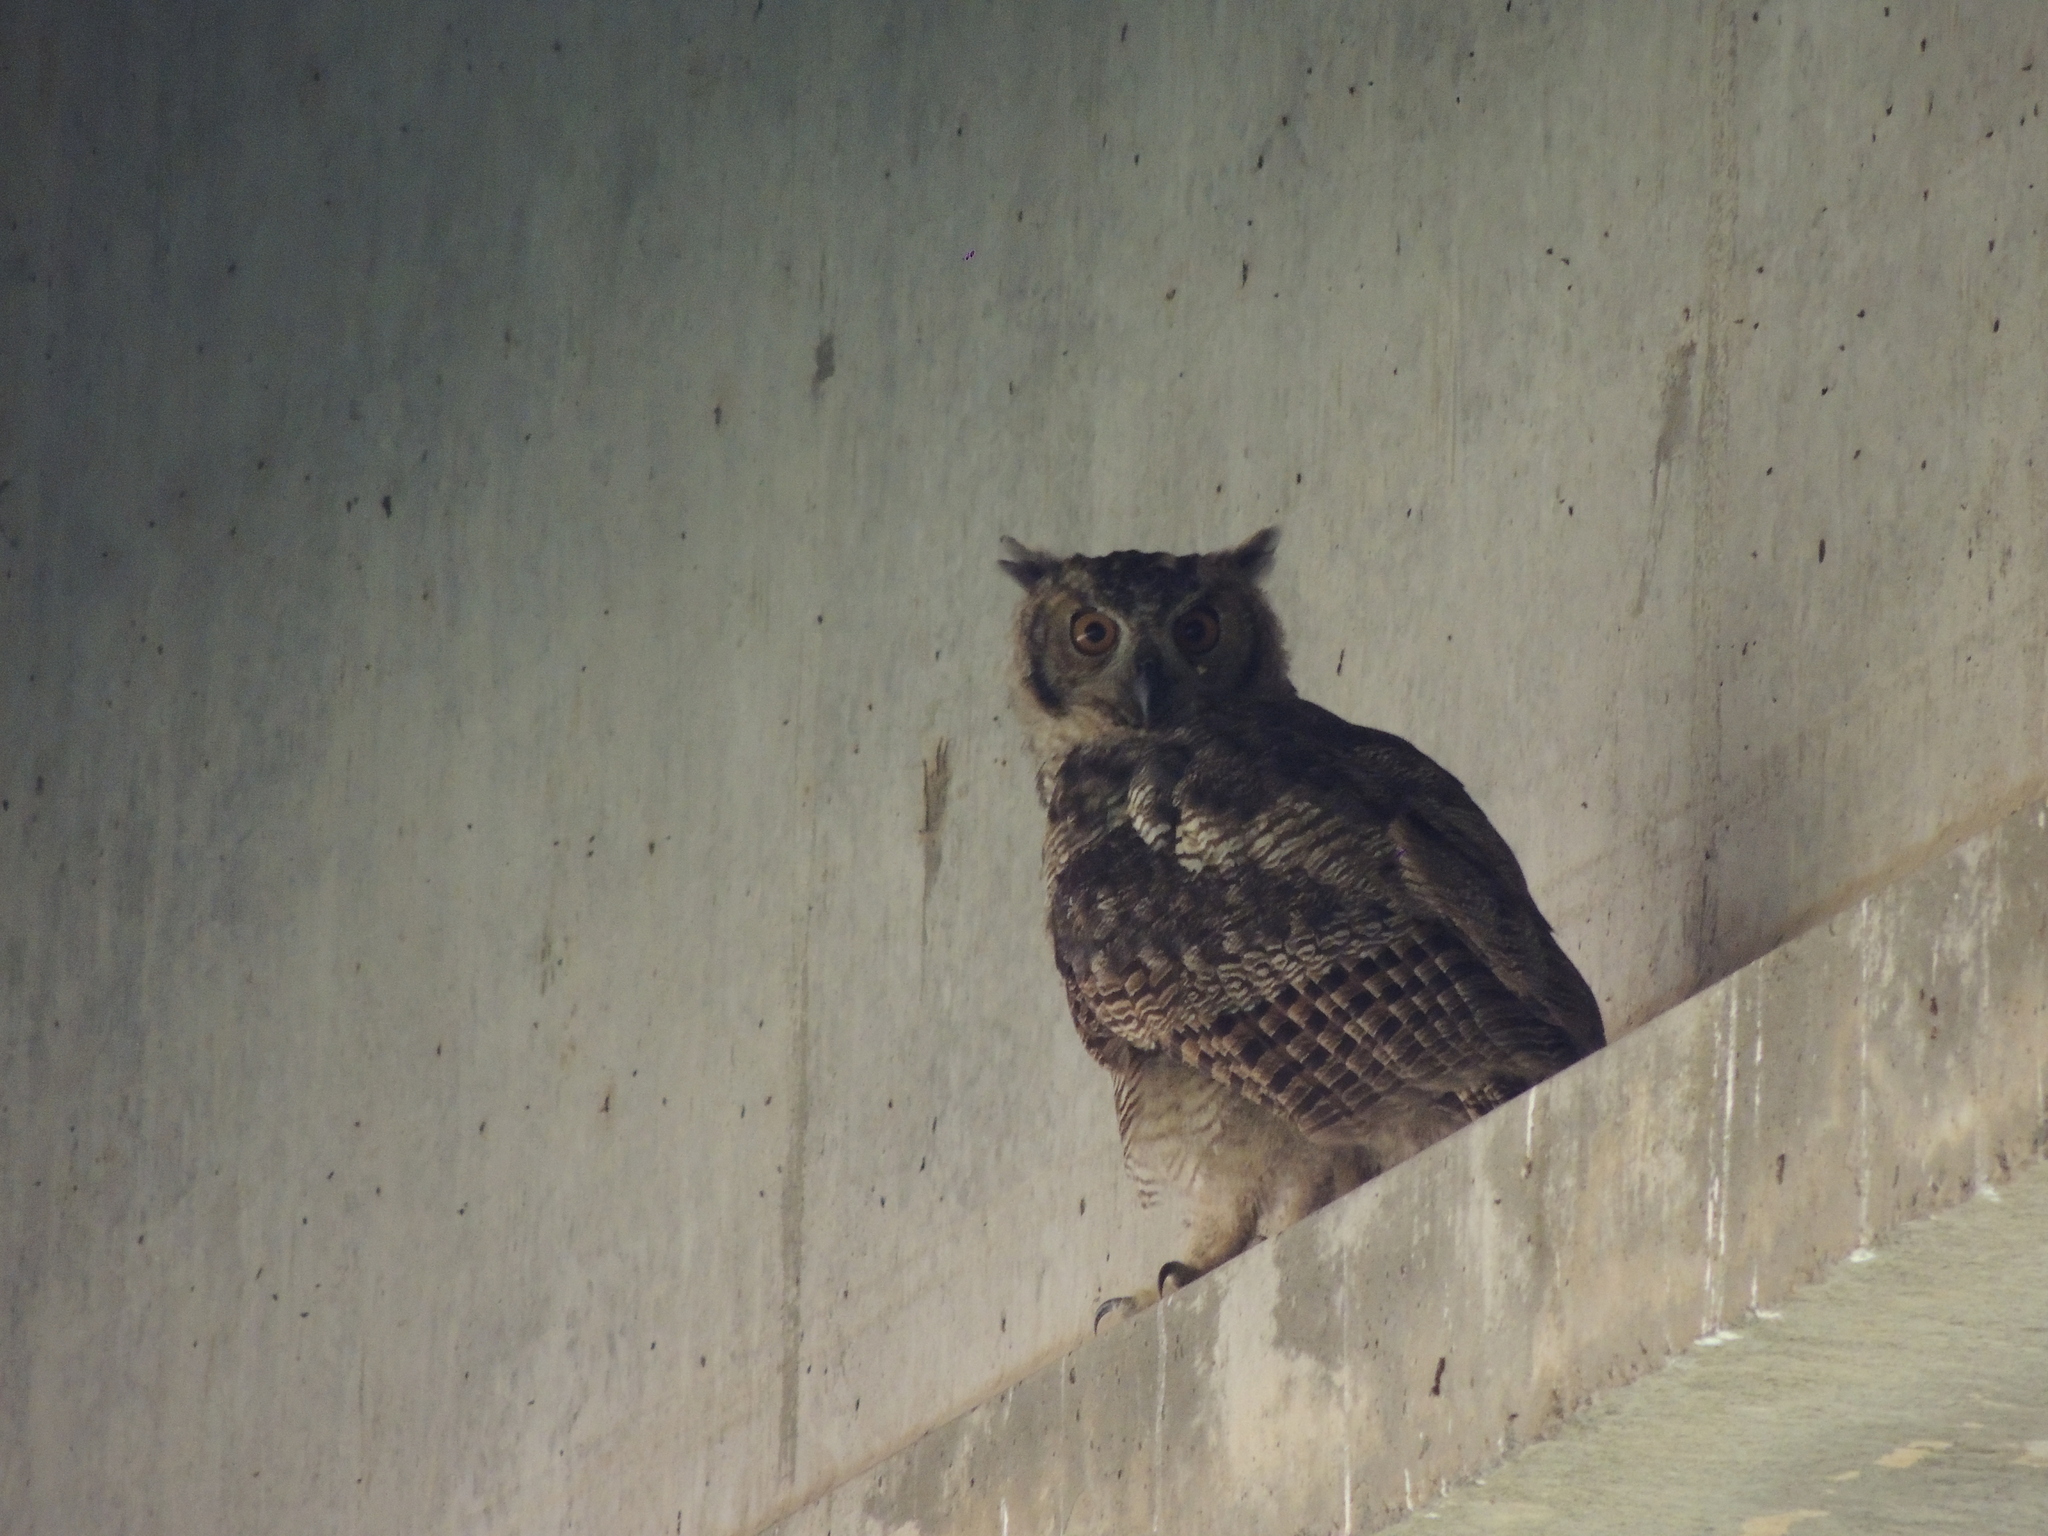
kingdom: Animalia
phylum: Chordata
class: Aves
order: Strigiformes
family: Strigidae
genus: Bubo
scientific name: Bubo virginianus
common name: Great horned owl
